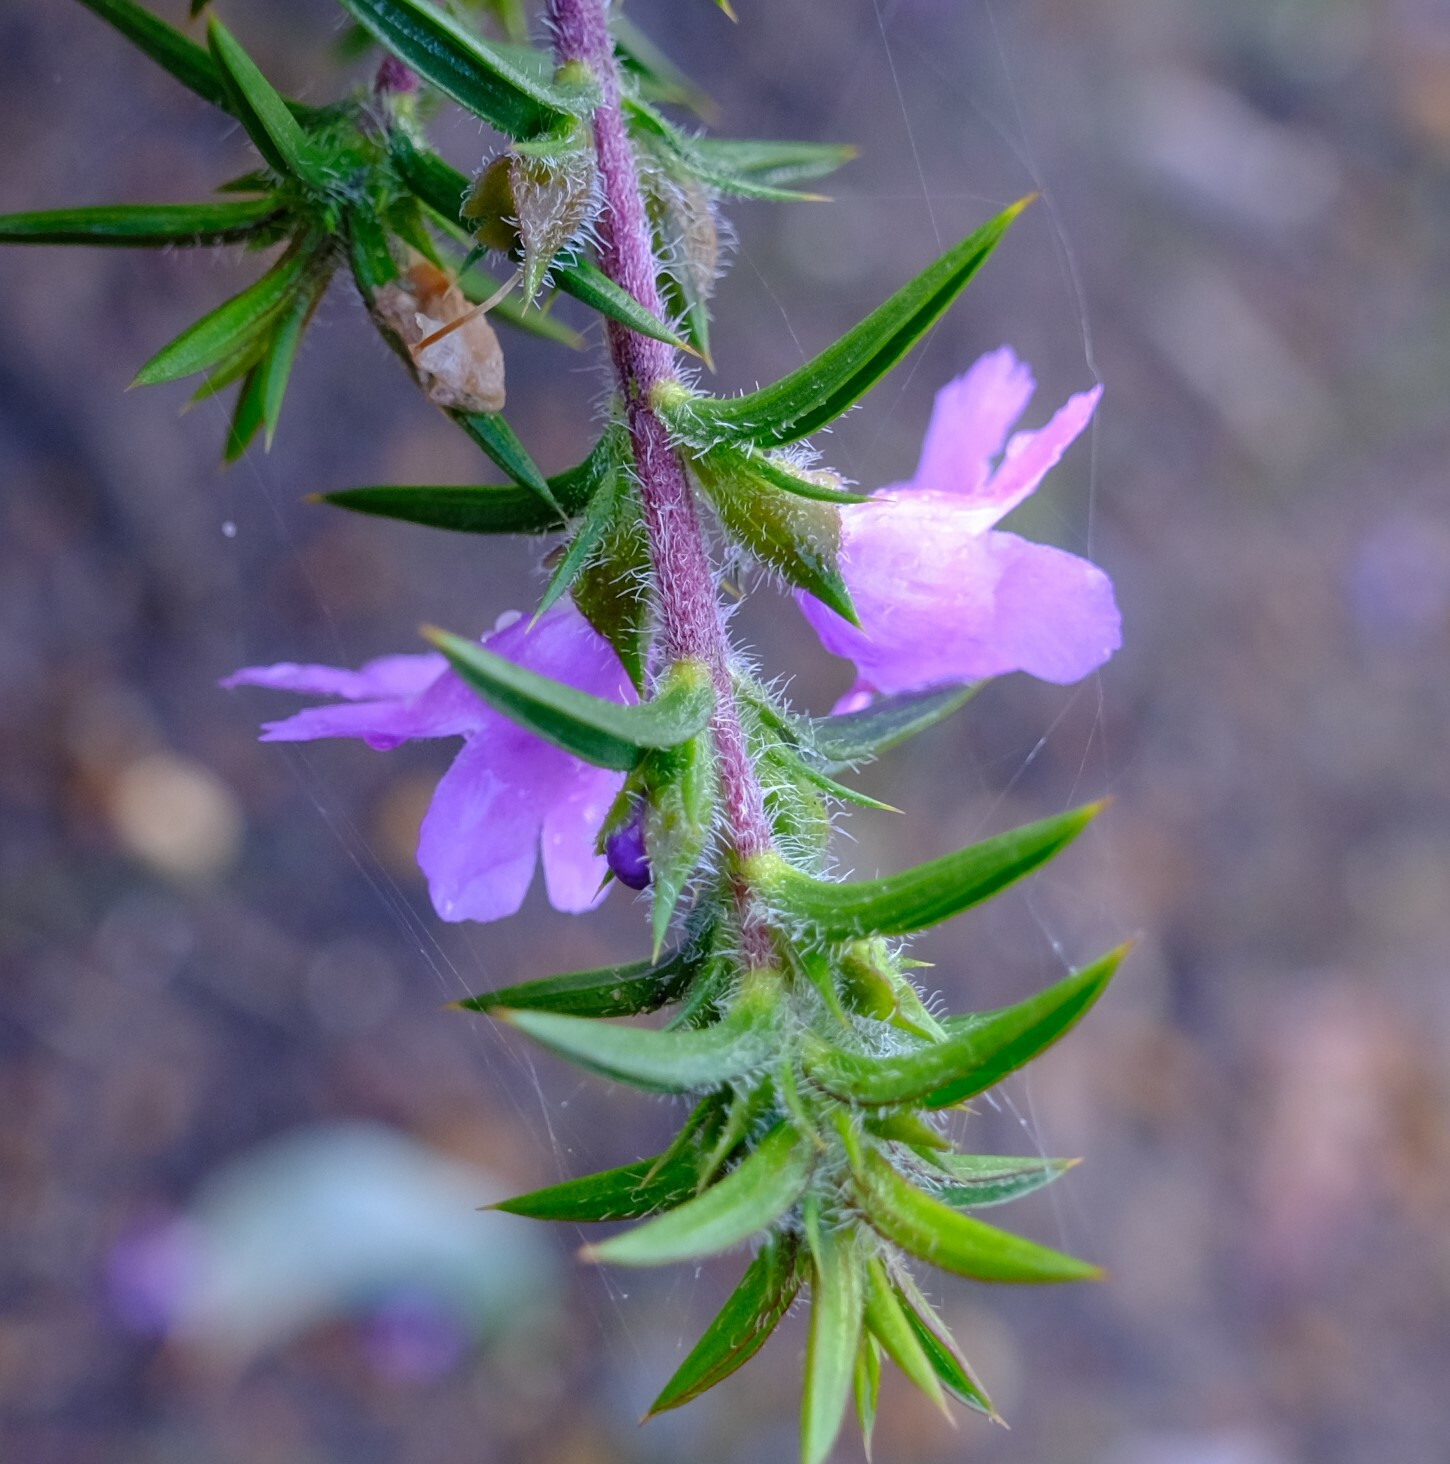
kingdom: Plantae
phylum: Tracheophyta
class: Magnoliopsida
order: Lamiales
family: Lamiaceae
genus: Hemiandra
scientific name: Hemiandra pungens
